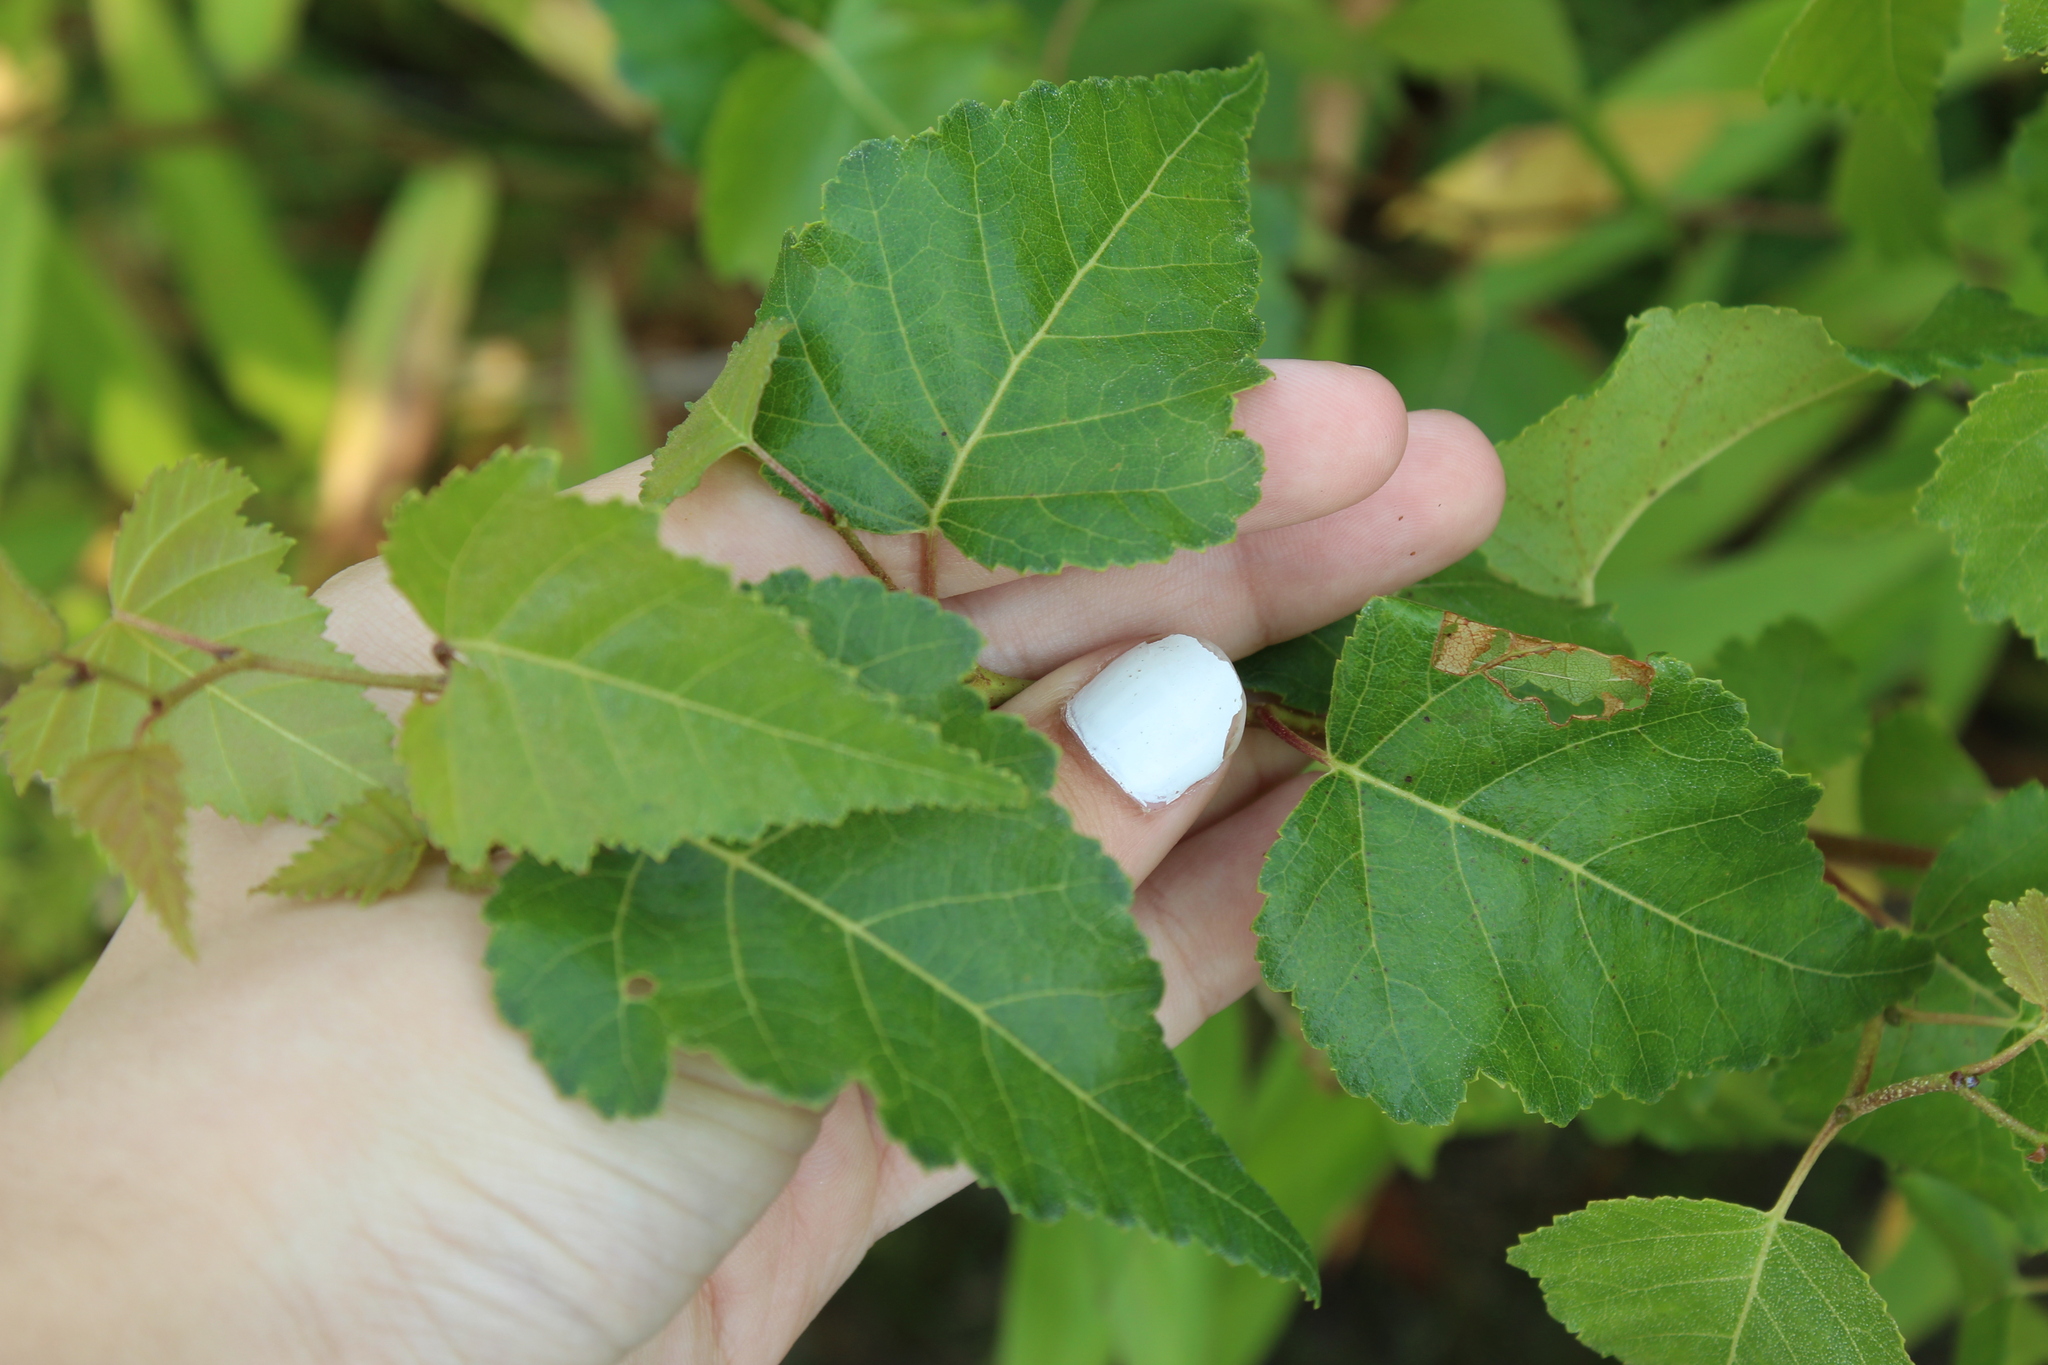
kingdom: Plantae
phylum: Tracheophyta
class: Magnoliopsida
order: Fagales
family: Betulaceae
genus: Betula
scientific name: Betula populifolia
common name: Fire birch
